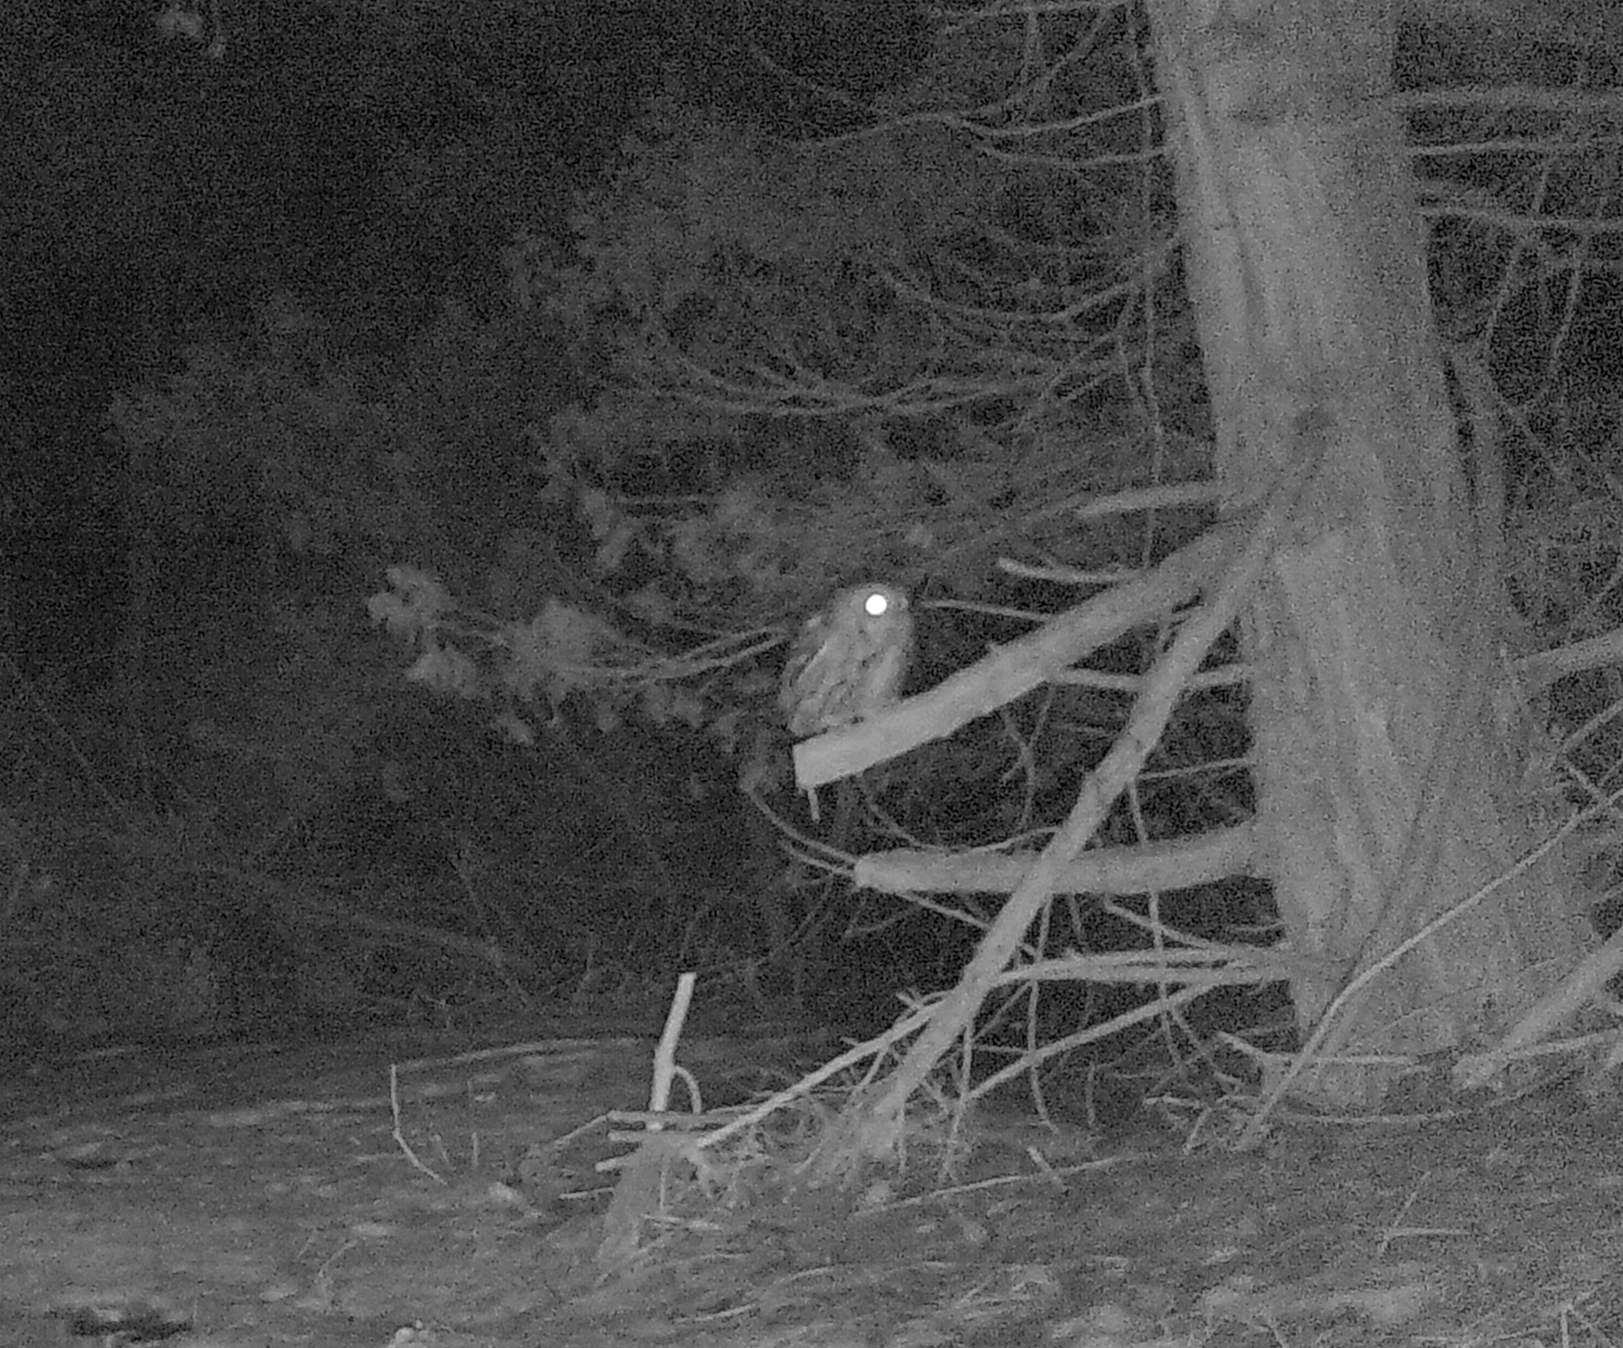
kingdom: Animalia
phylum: Chordata
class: Aves
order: Strigiformes
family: Strigidae
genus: Megascops
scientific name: Megascops asio
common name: Eastern screech-owl
